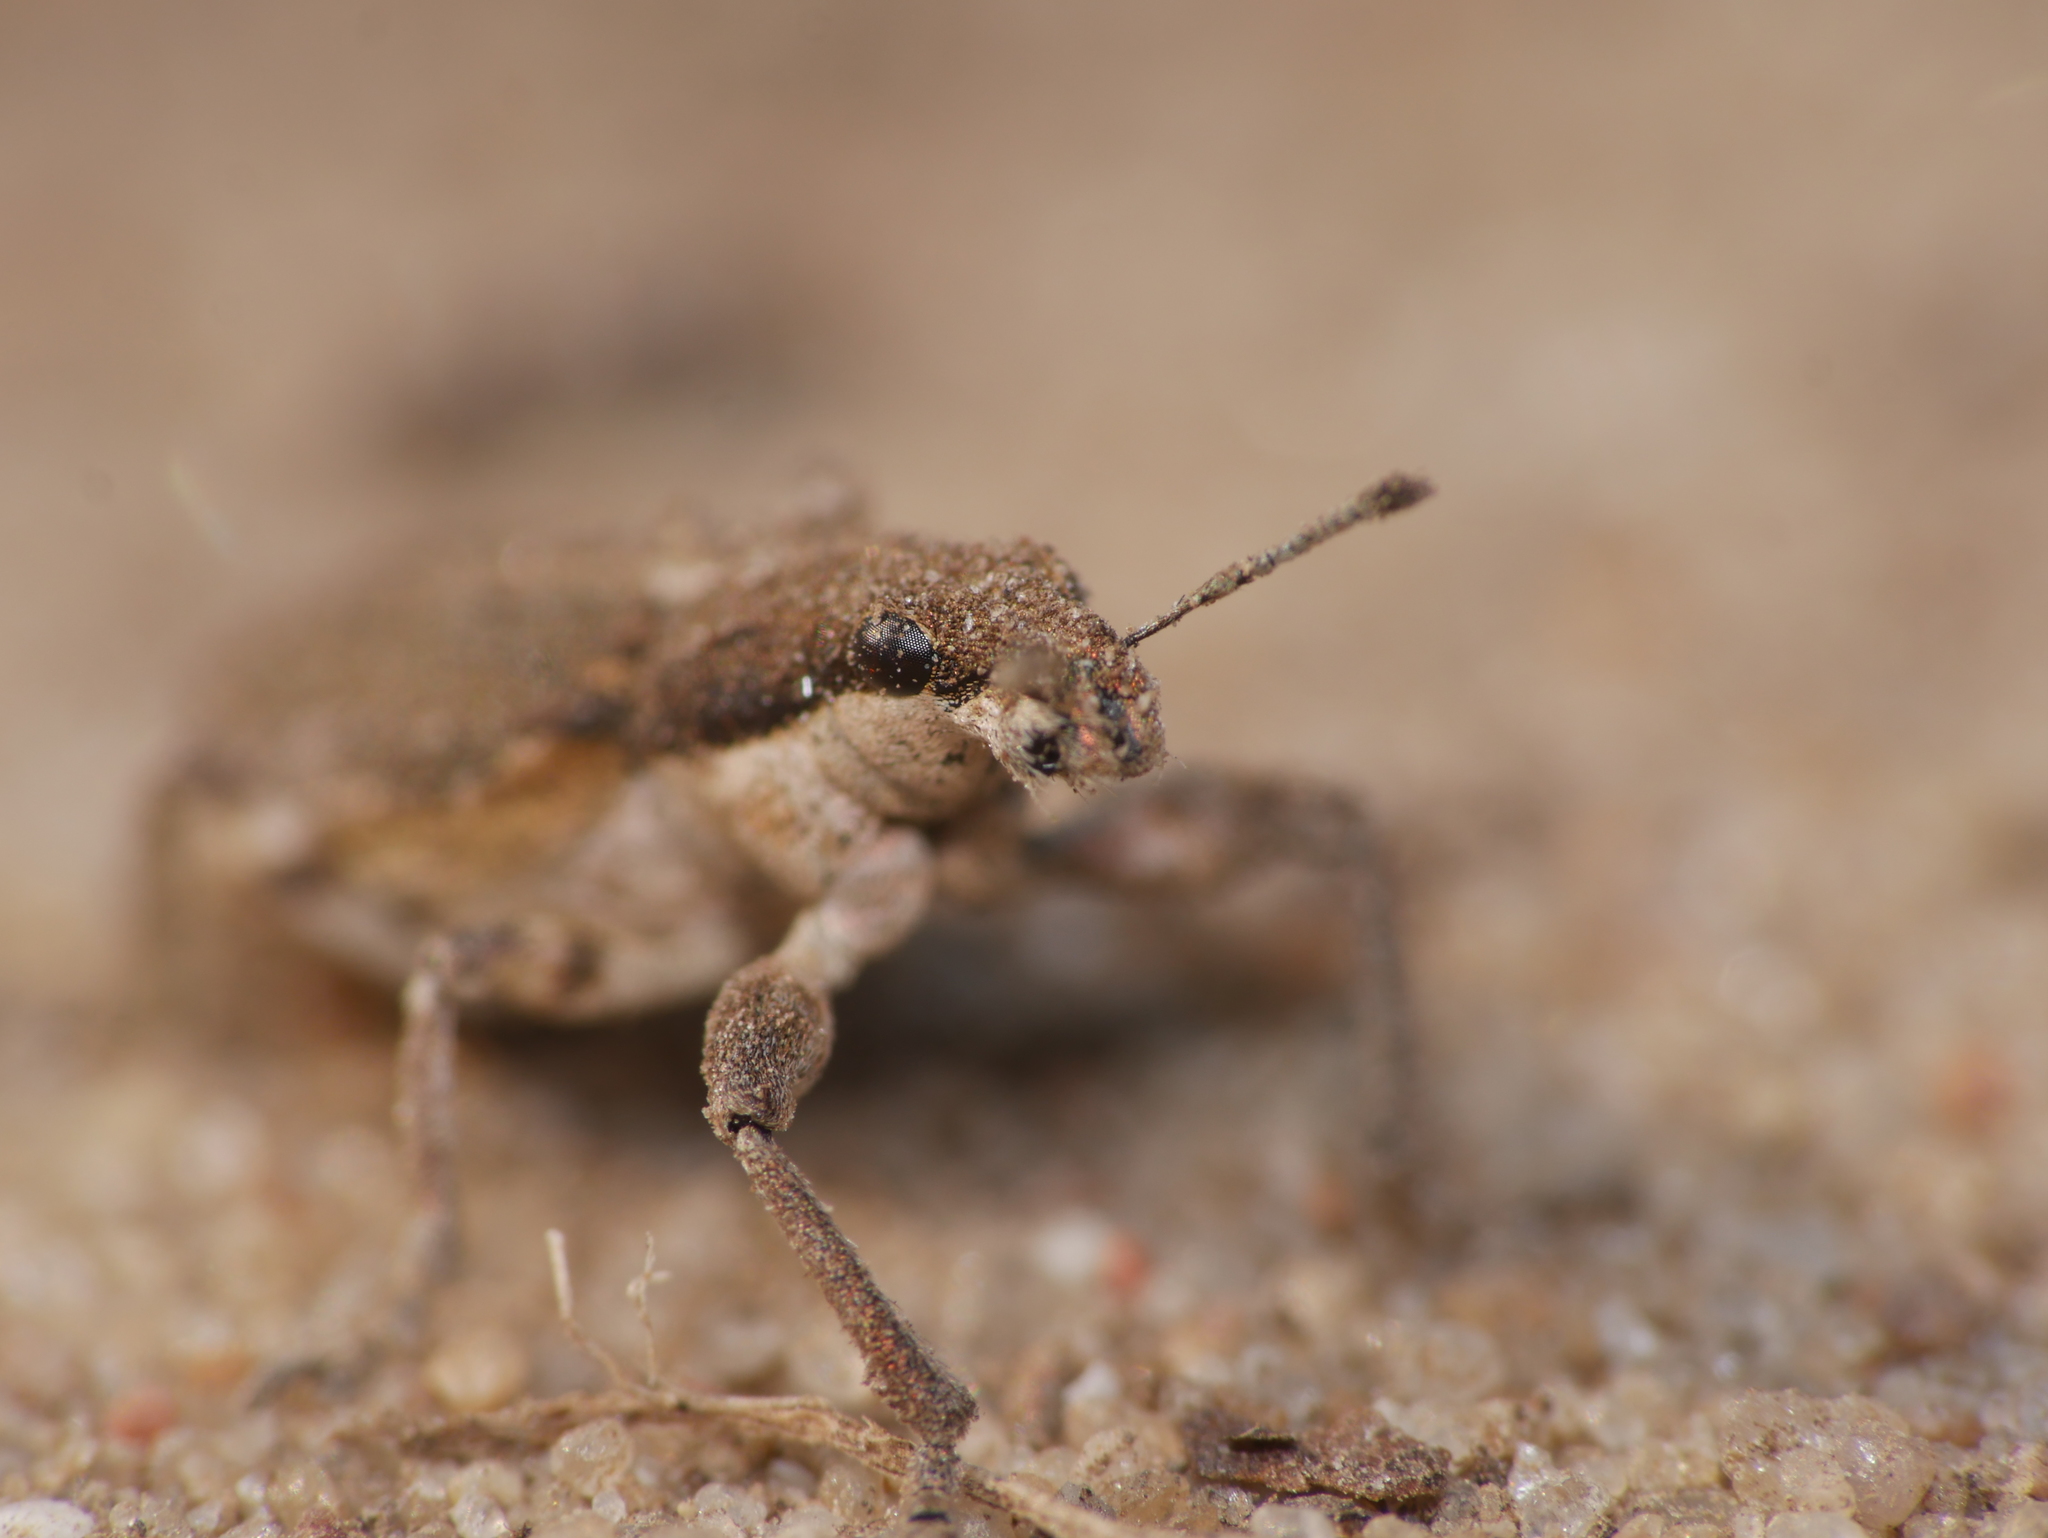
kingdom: Animalia
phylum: Arthropoda
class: Insecta
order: Coleoptera
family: Curculionidae
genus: Charagmus
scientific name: Charagmus griseus
